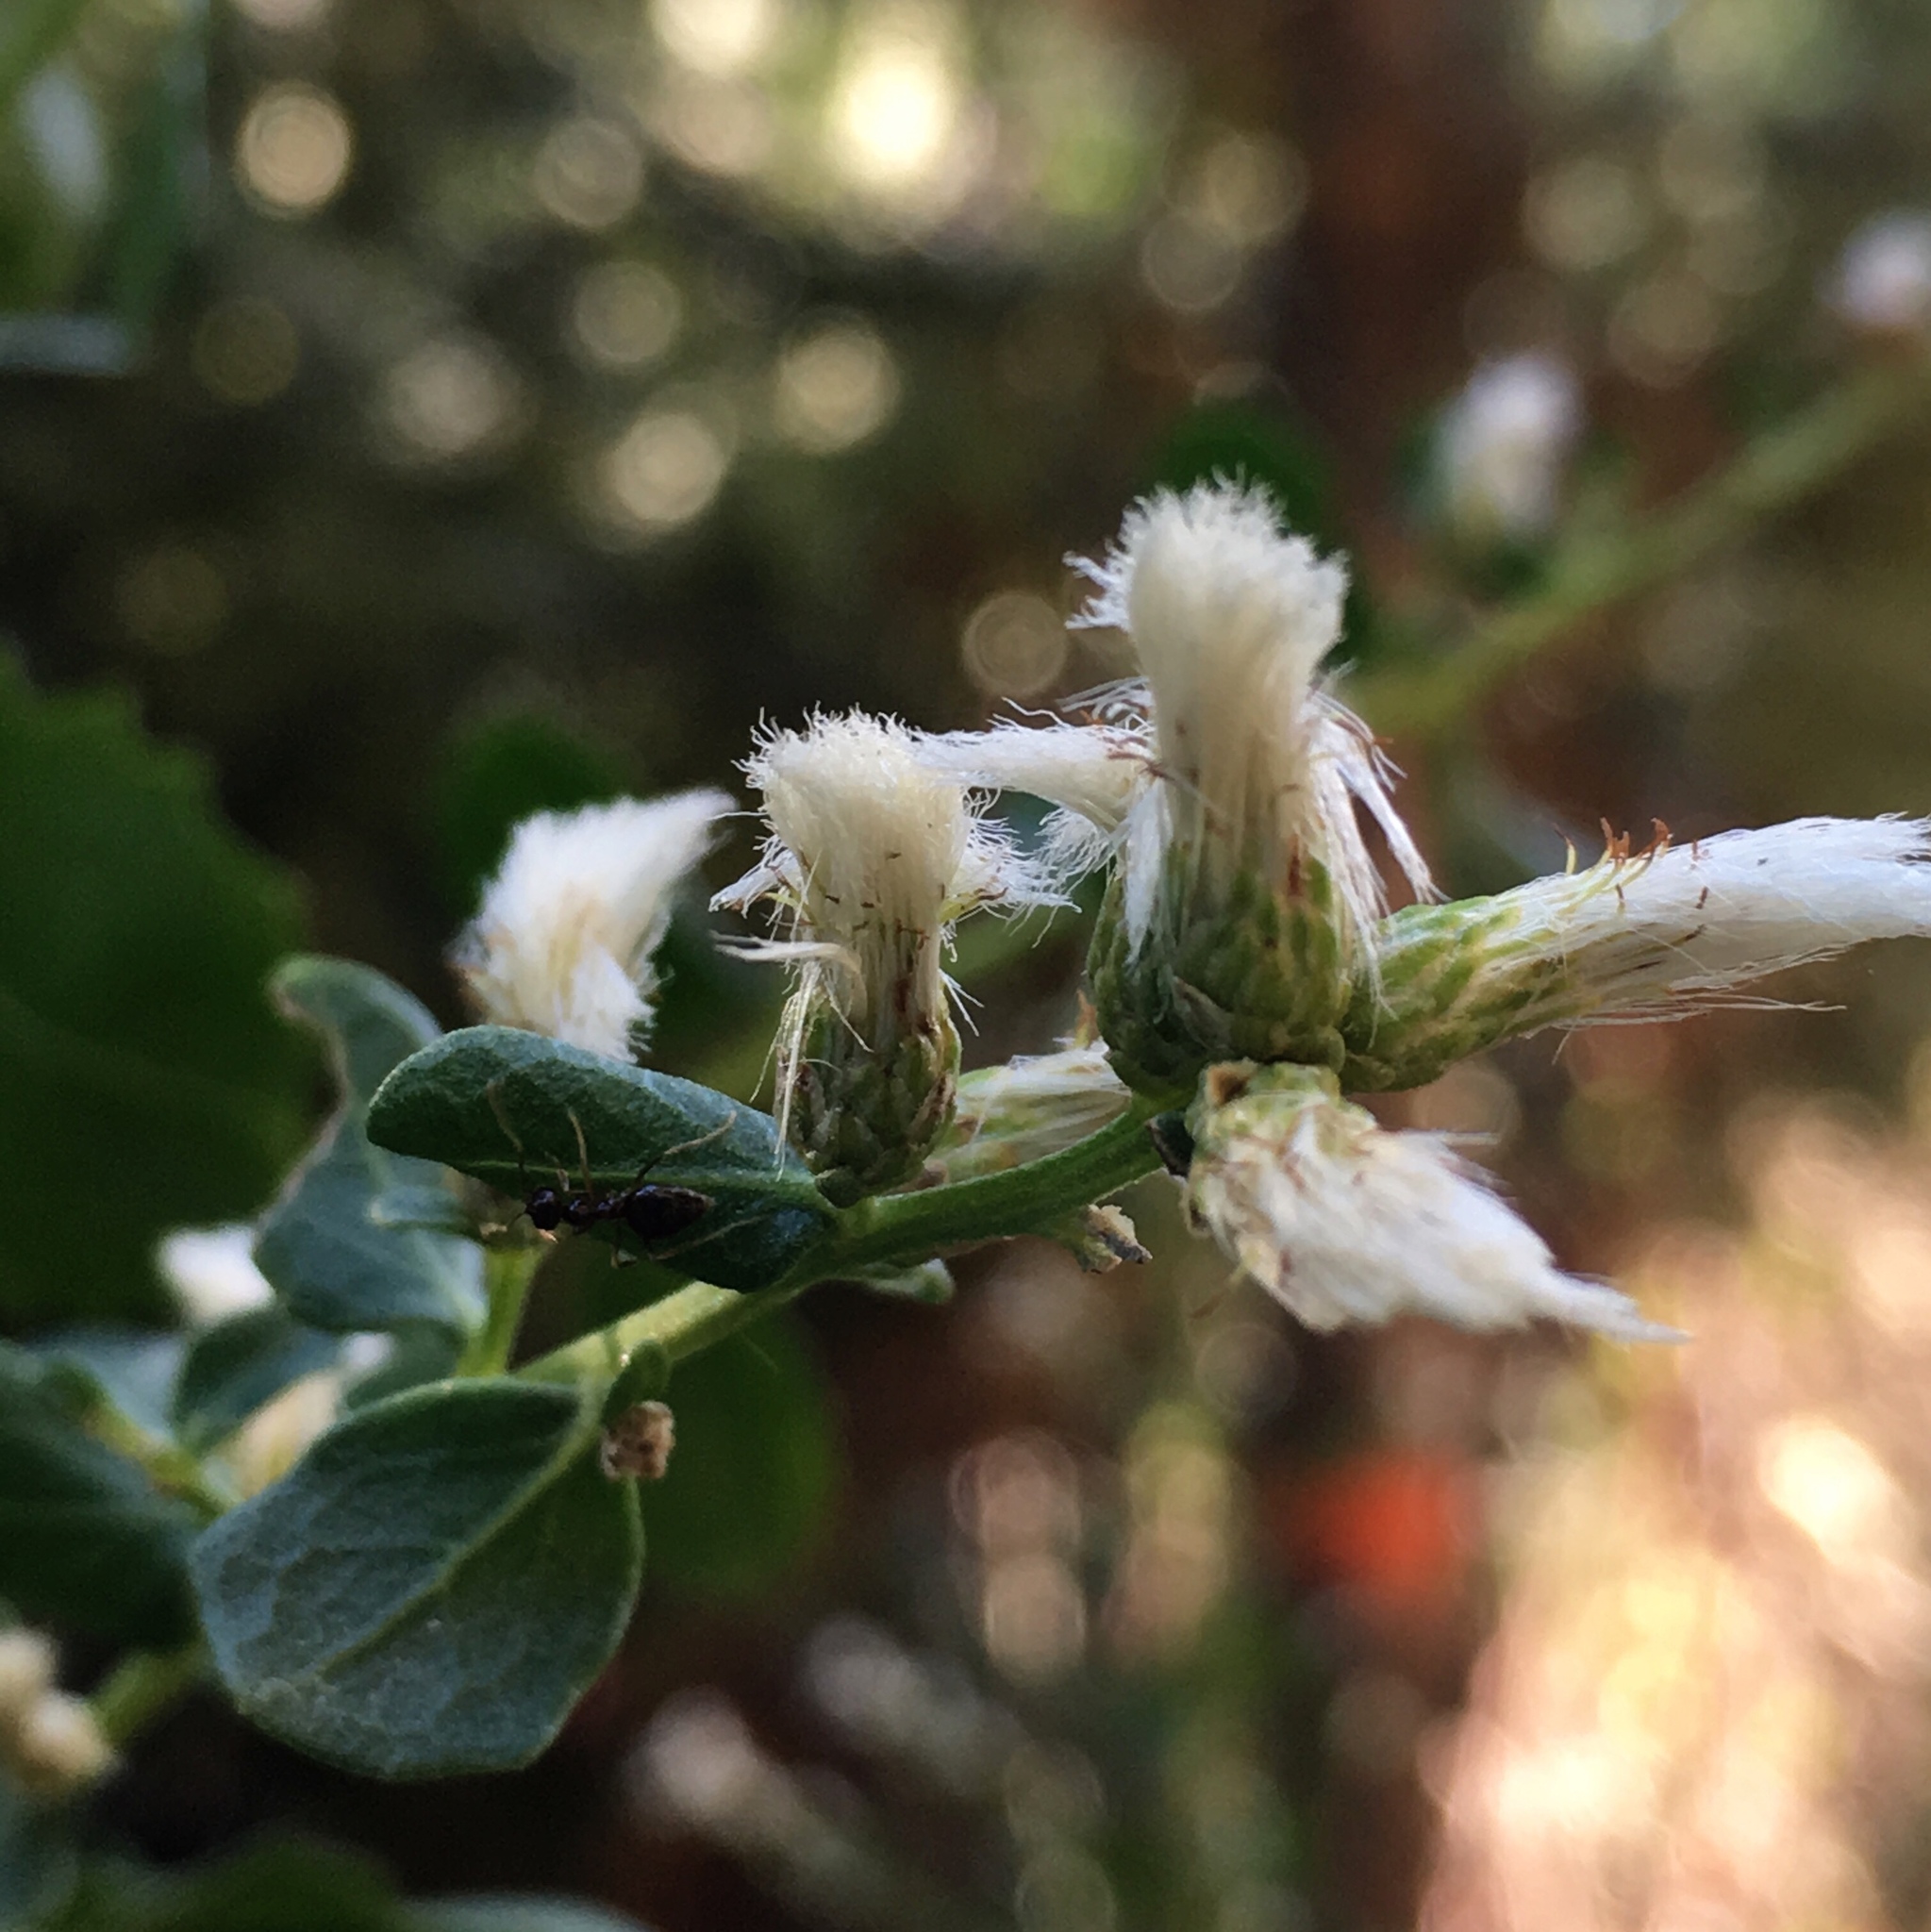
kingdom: Plantae
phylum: Tracheophyta
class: Magnoliopsida
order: Asterales
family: Asteraceae
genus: Baccharis
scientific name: Baccharis pilularis
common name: Coyotebrush
